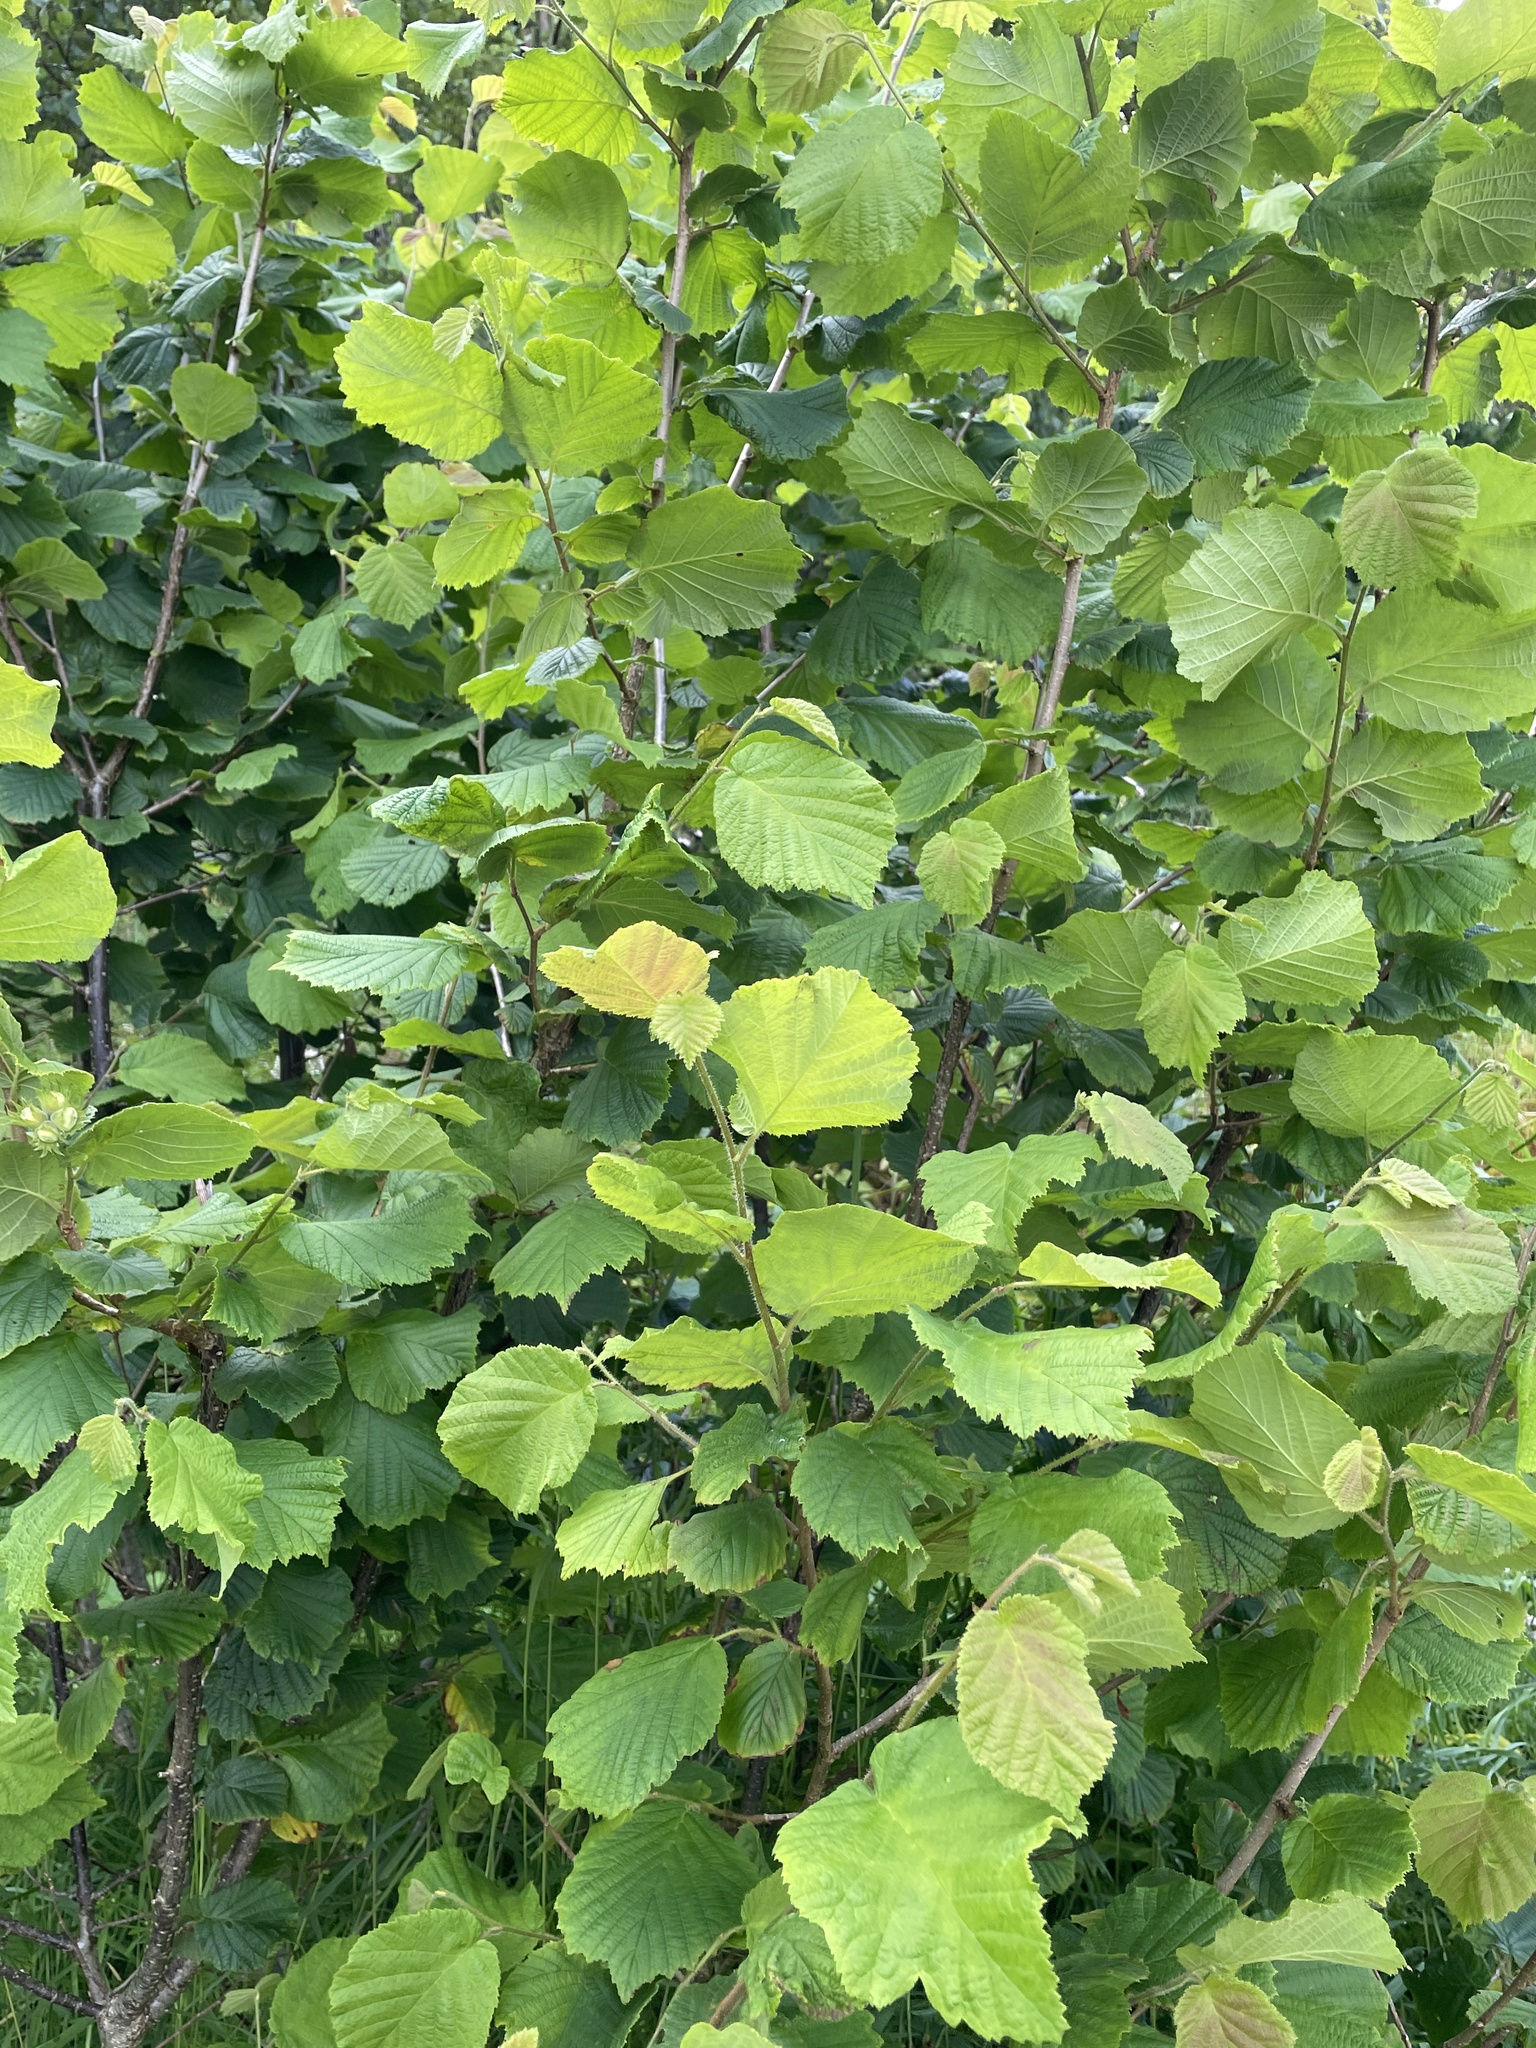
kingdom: Plantae
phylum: Tracheophyta
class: Magnoliopsida
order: Fagales
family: Betulaceae
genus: Corylus
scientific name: Corylus avellana
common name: European hazel
